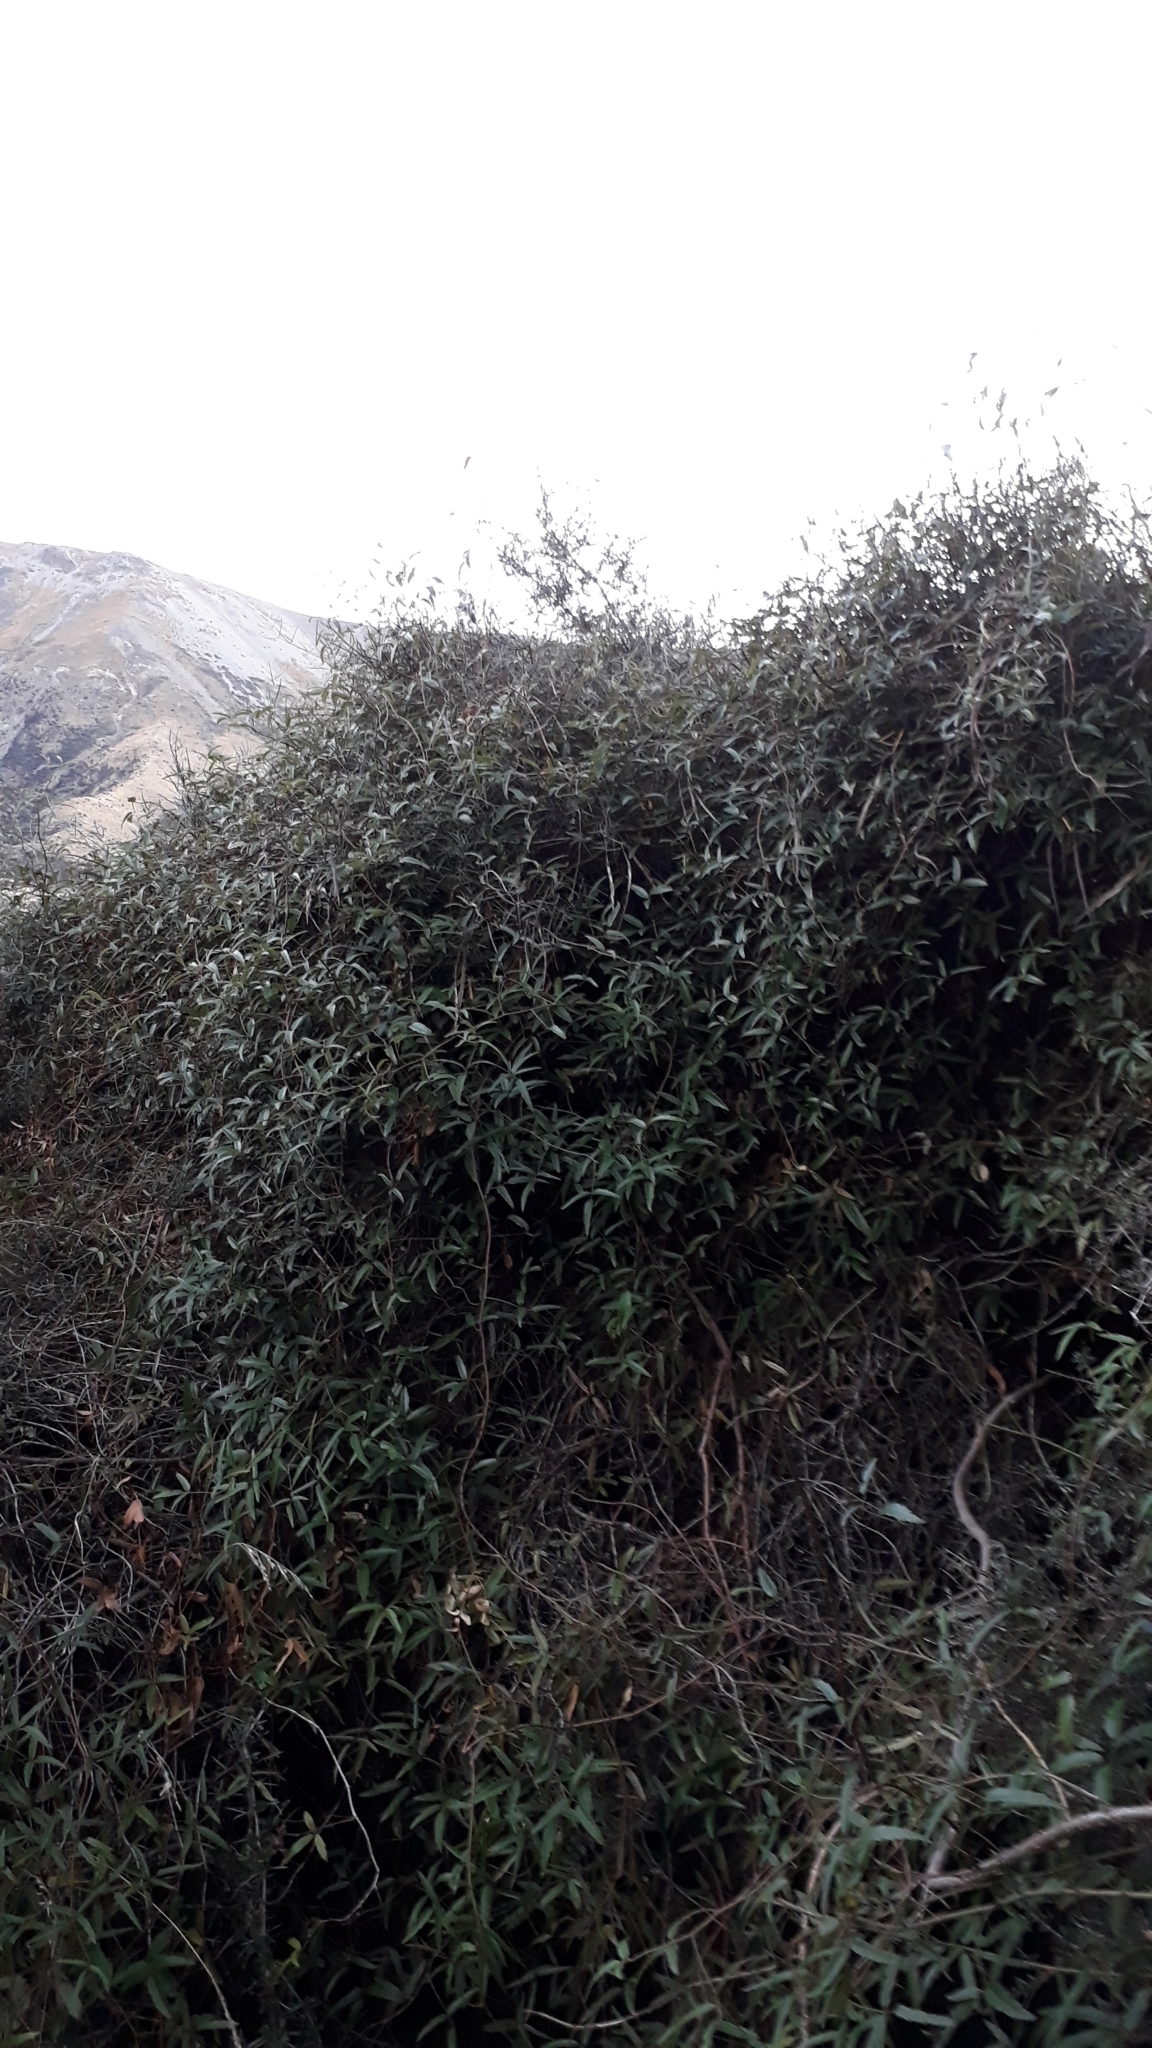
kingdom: Plantae
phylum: Tracheophyta
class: Magnoliopsida
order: Rosales
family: Rosaceae
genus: Rubus
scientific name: Rubus schmidelioides
